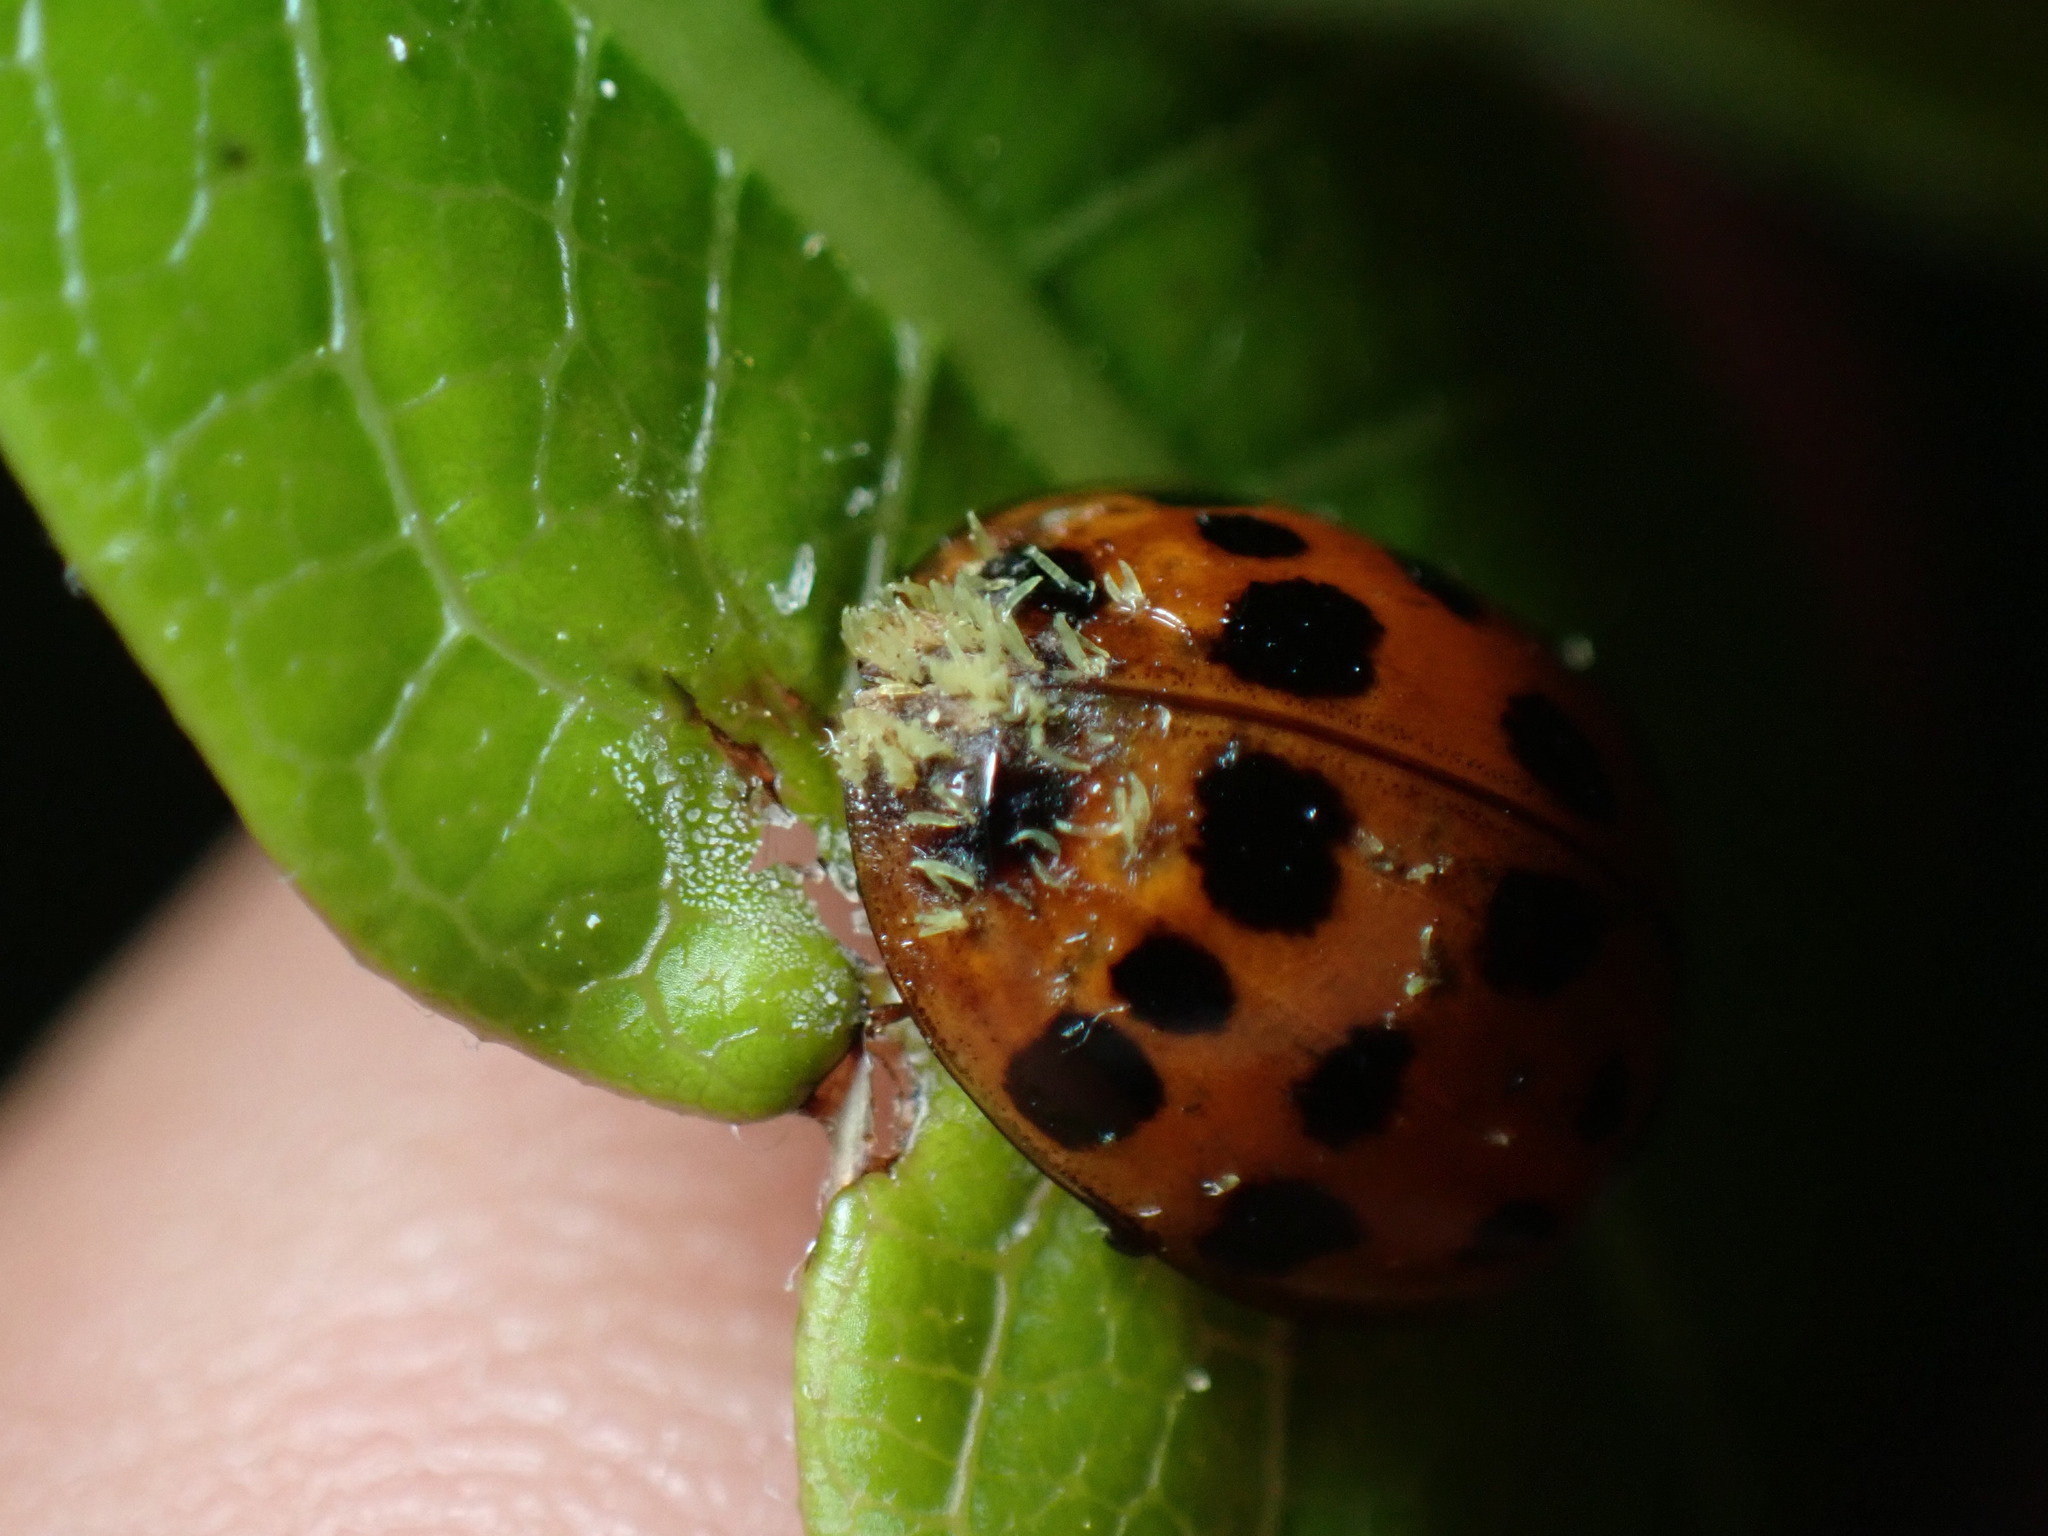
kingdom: Fungi
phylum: Ascomycota
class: Laboulbeniomycetes
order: Laboulbeniales
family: Laboulbeniaceae
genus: Hesperomyces
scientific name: Hesperomyces harmoniae
